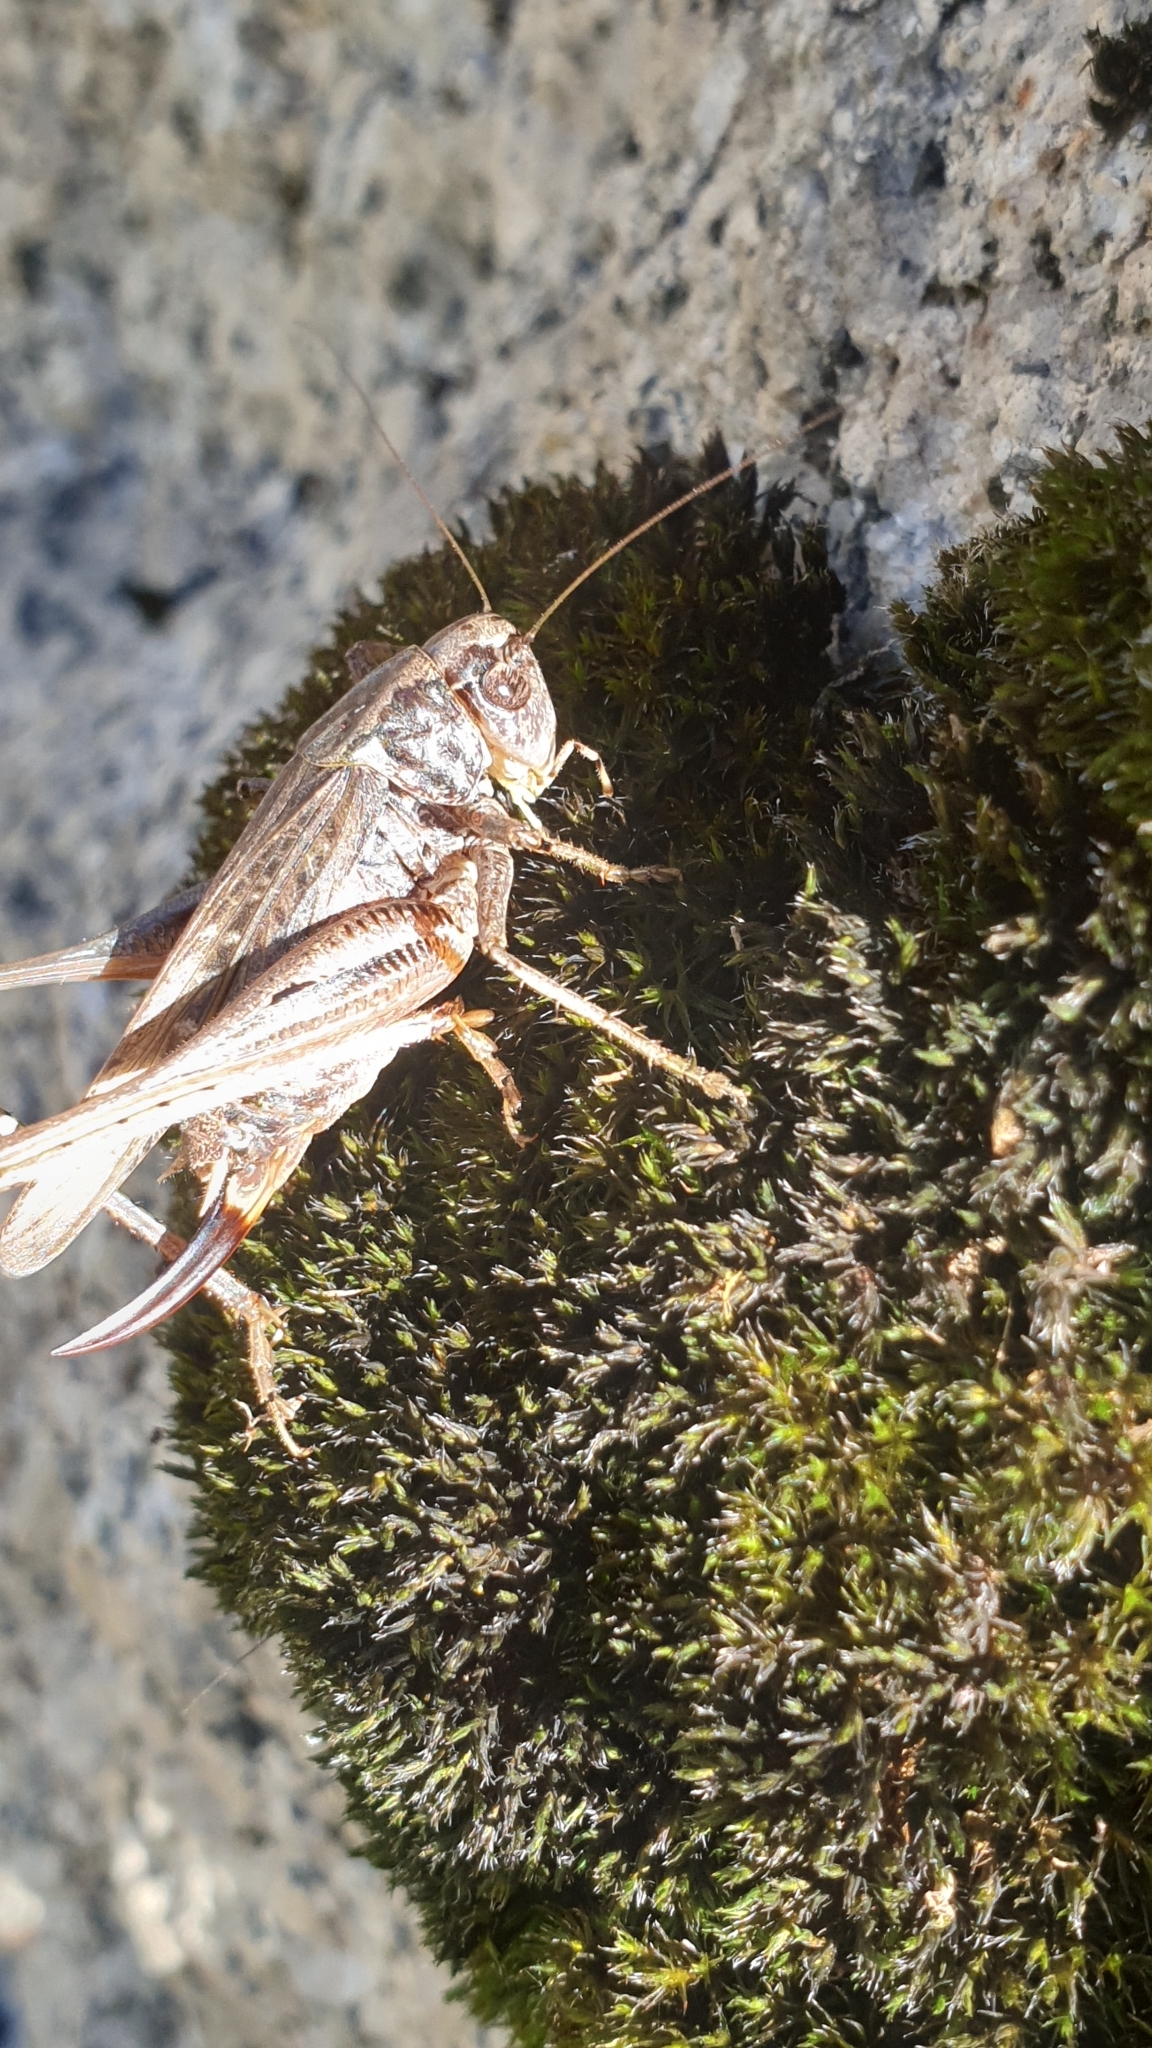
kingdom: Animalia
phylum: Arthropoda
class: Insecta
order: Orthoptera
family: Tettigoniidae
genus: Platycleis
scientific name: Platycleis albopunctata
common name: Grey bush-cricket
